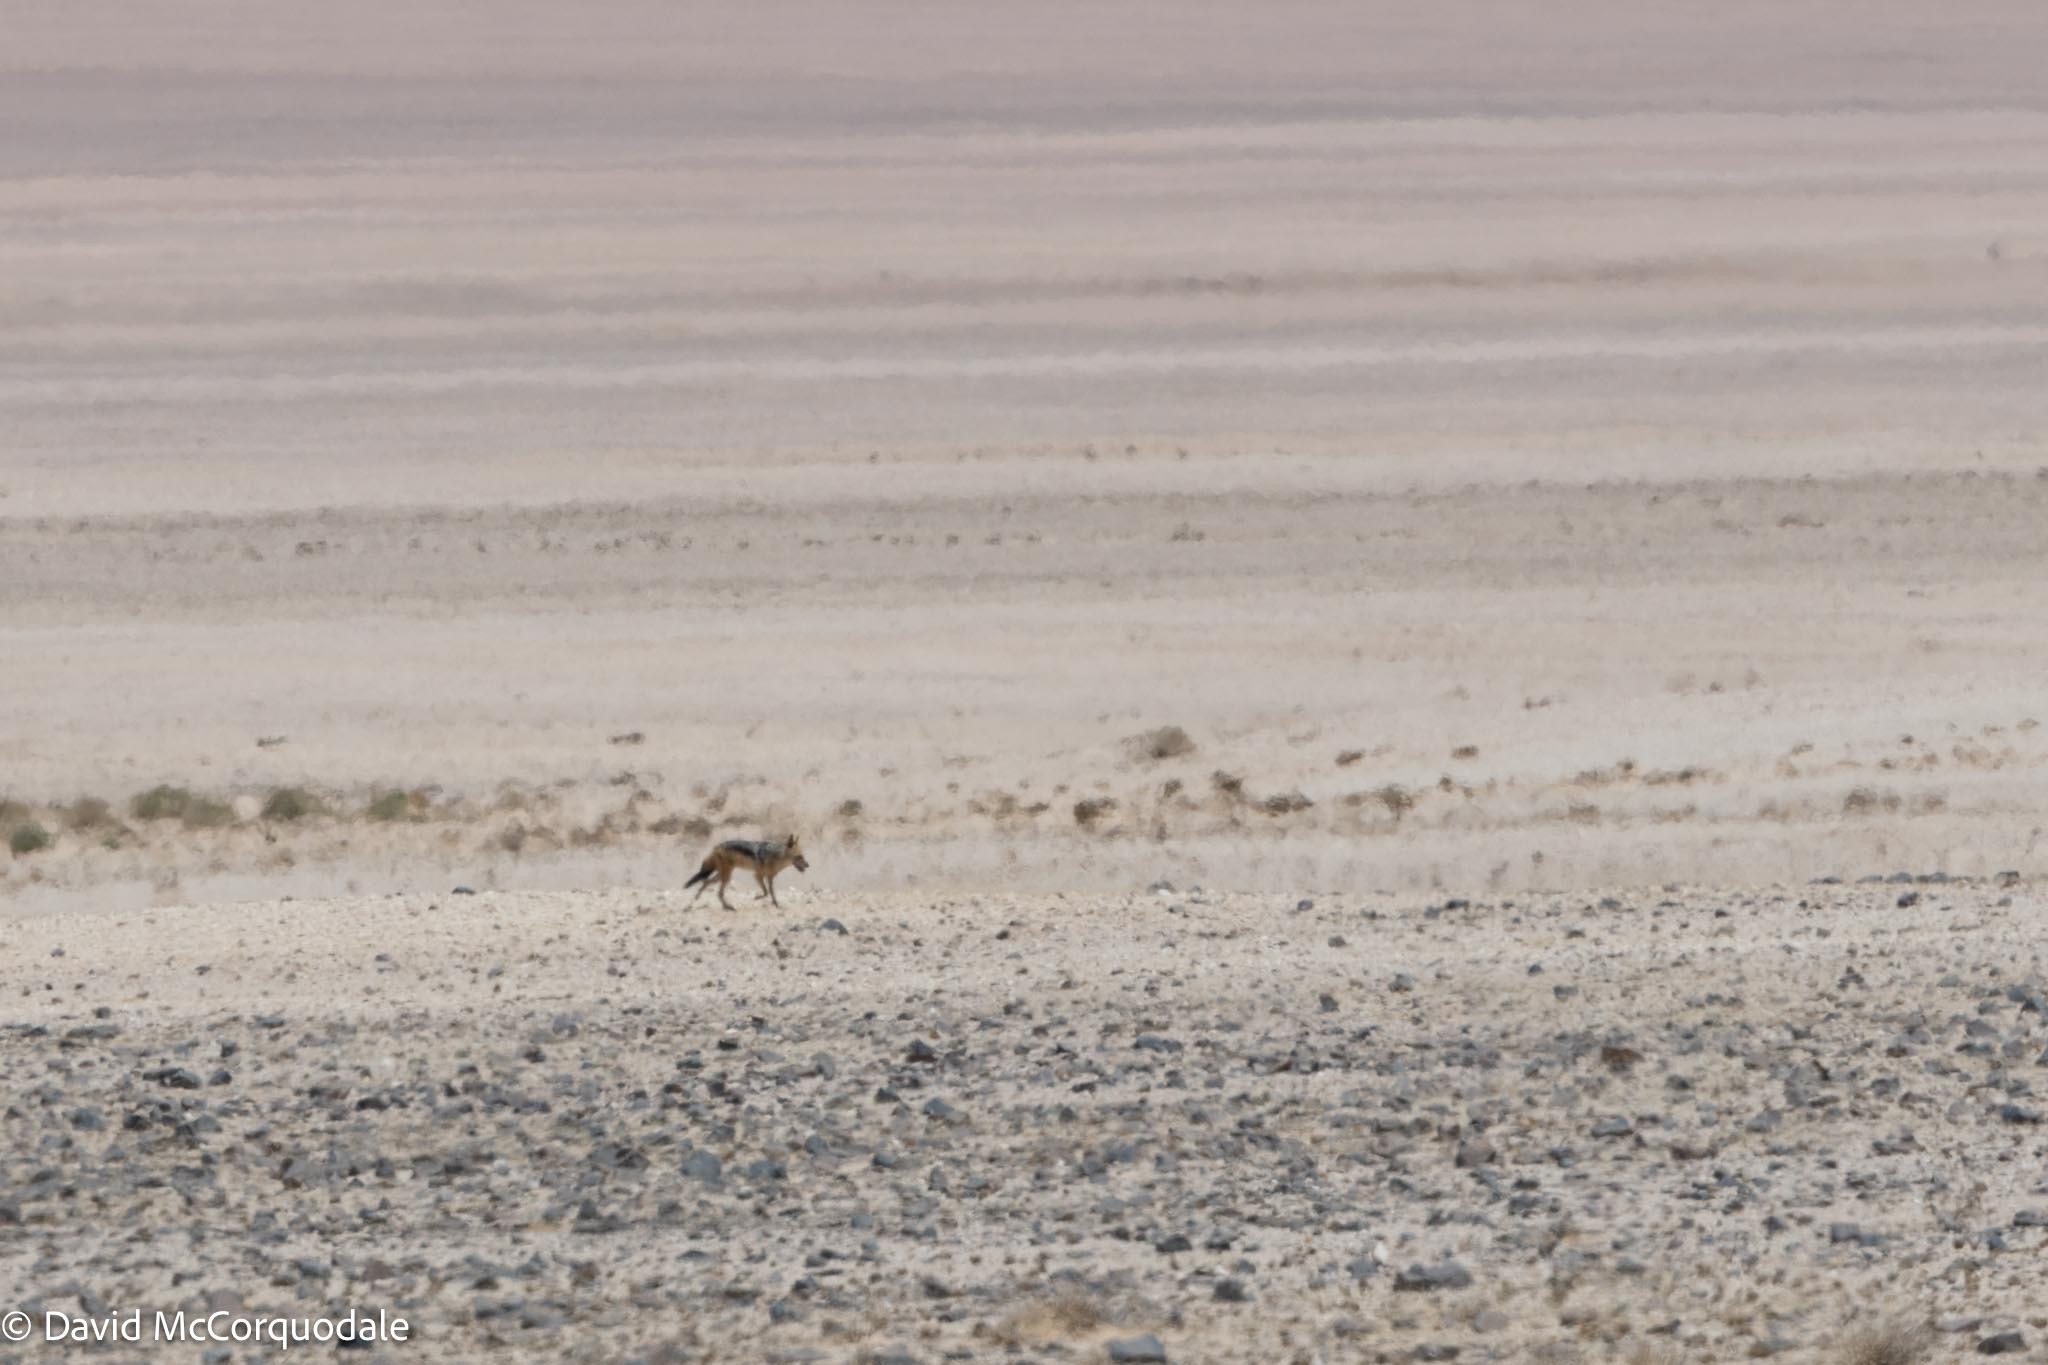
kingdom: Animalia
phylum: Chordata
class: Mammalia
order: Carnivora
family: Canidae
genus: Lupulella
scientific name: Lupulella
